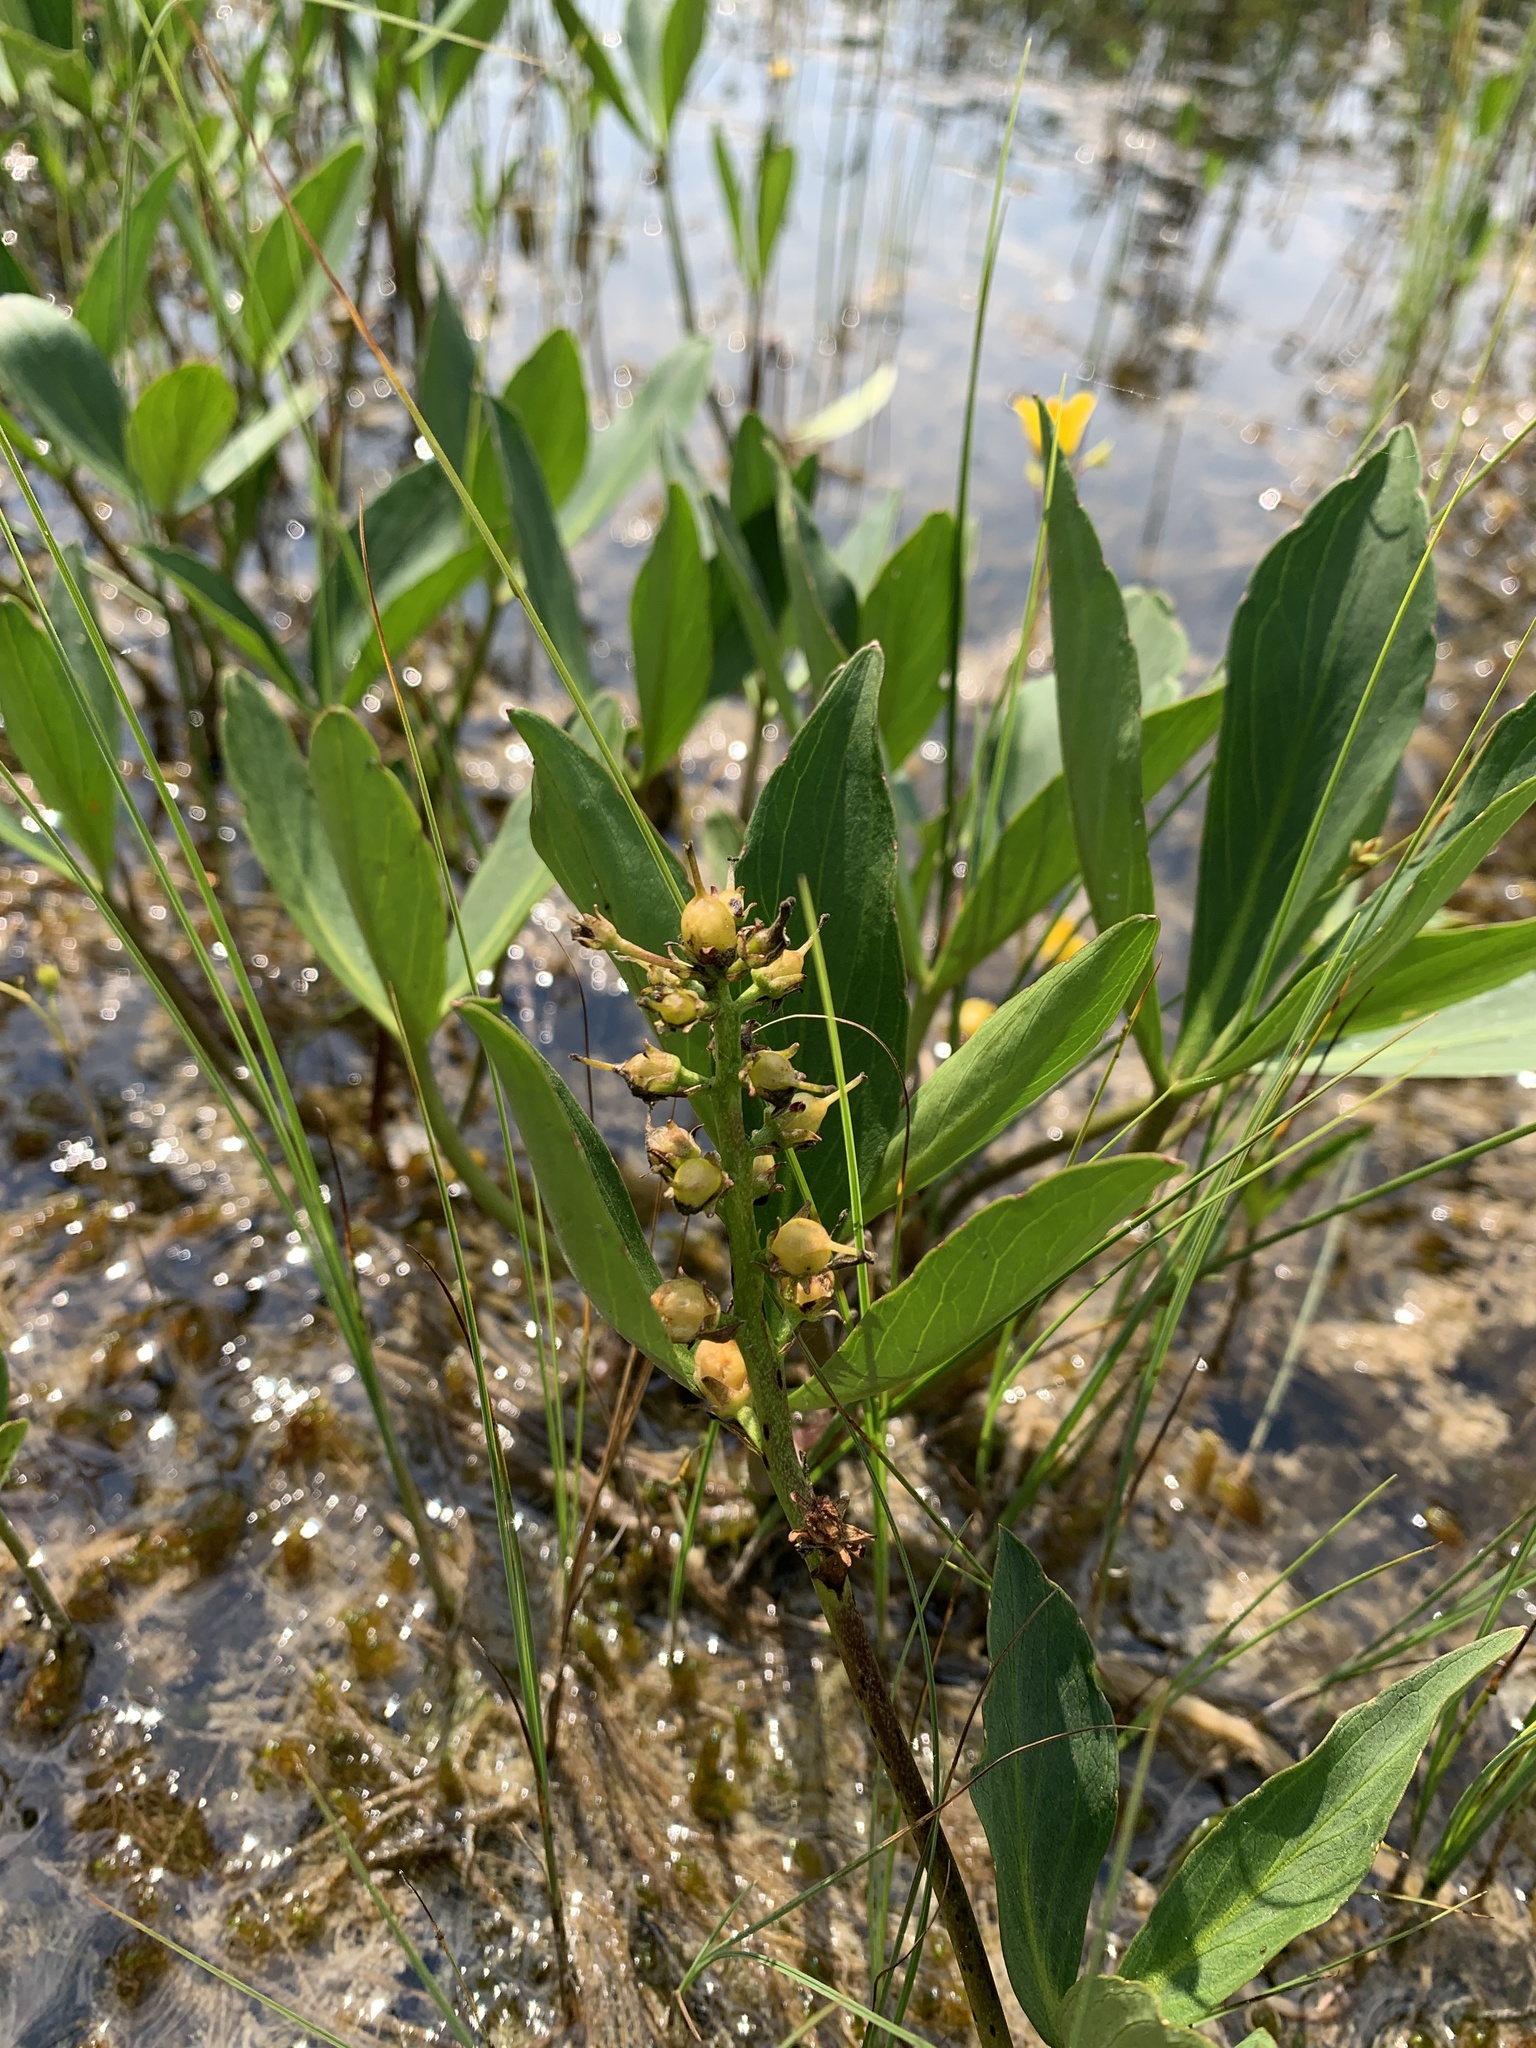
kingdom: Plantae
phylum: Tracheophyta
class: Magnoliopsida
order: Asterales
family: Menyanthaceae
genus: Menyanthes
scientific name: Menyanthes trifoliata
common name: Bogbean
